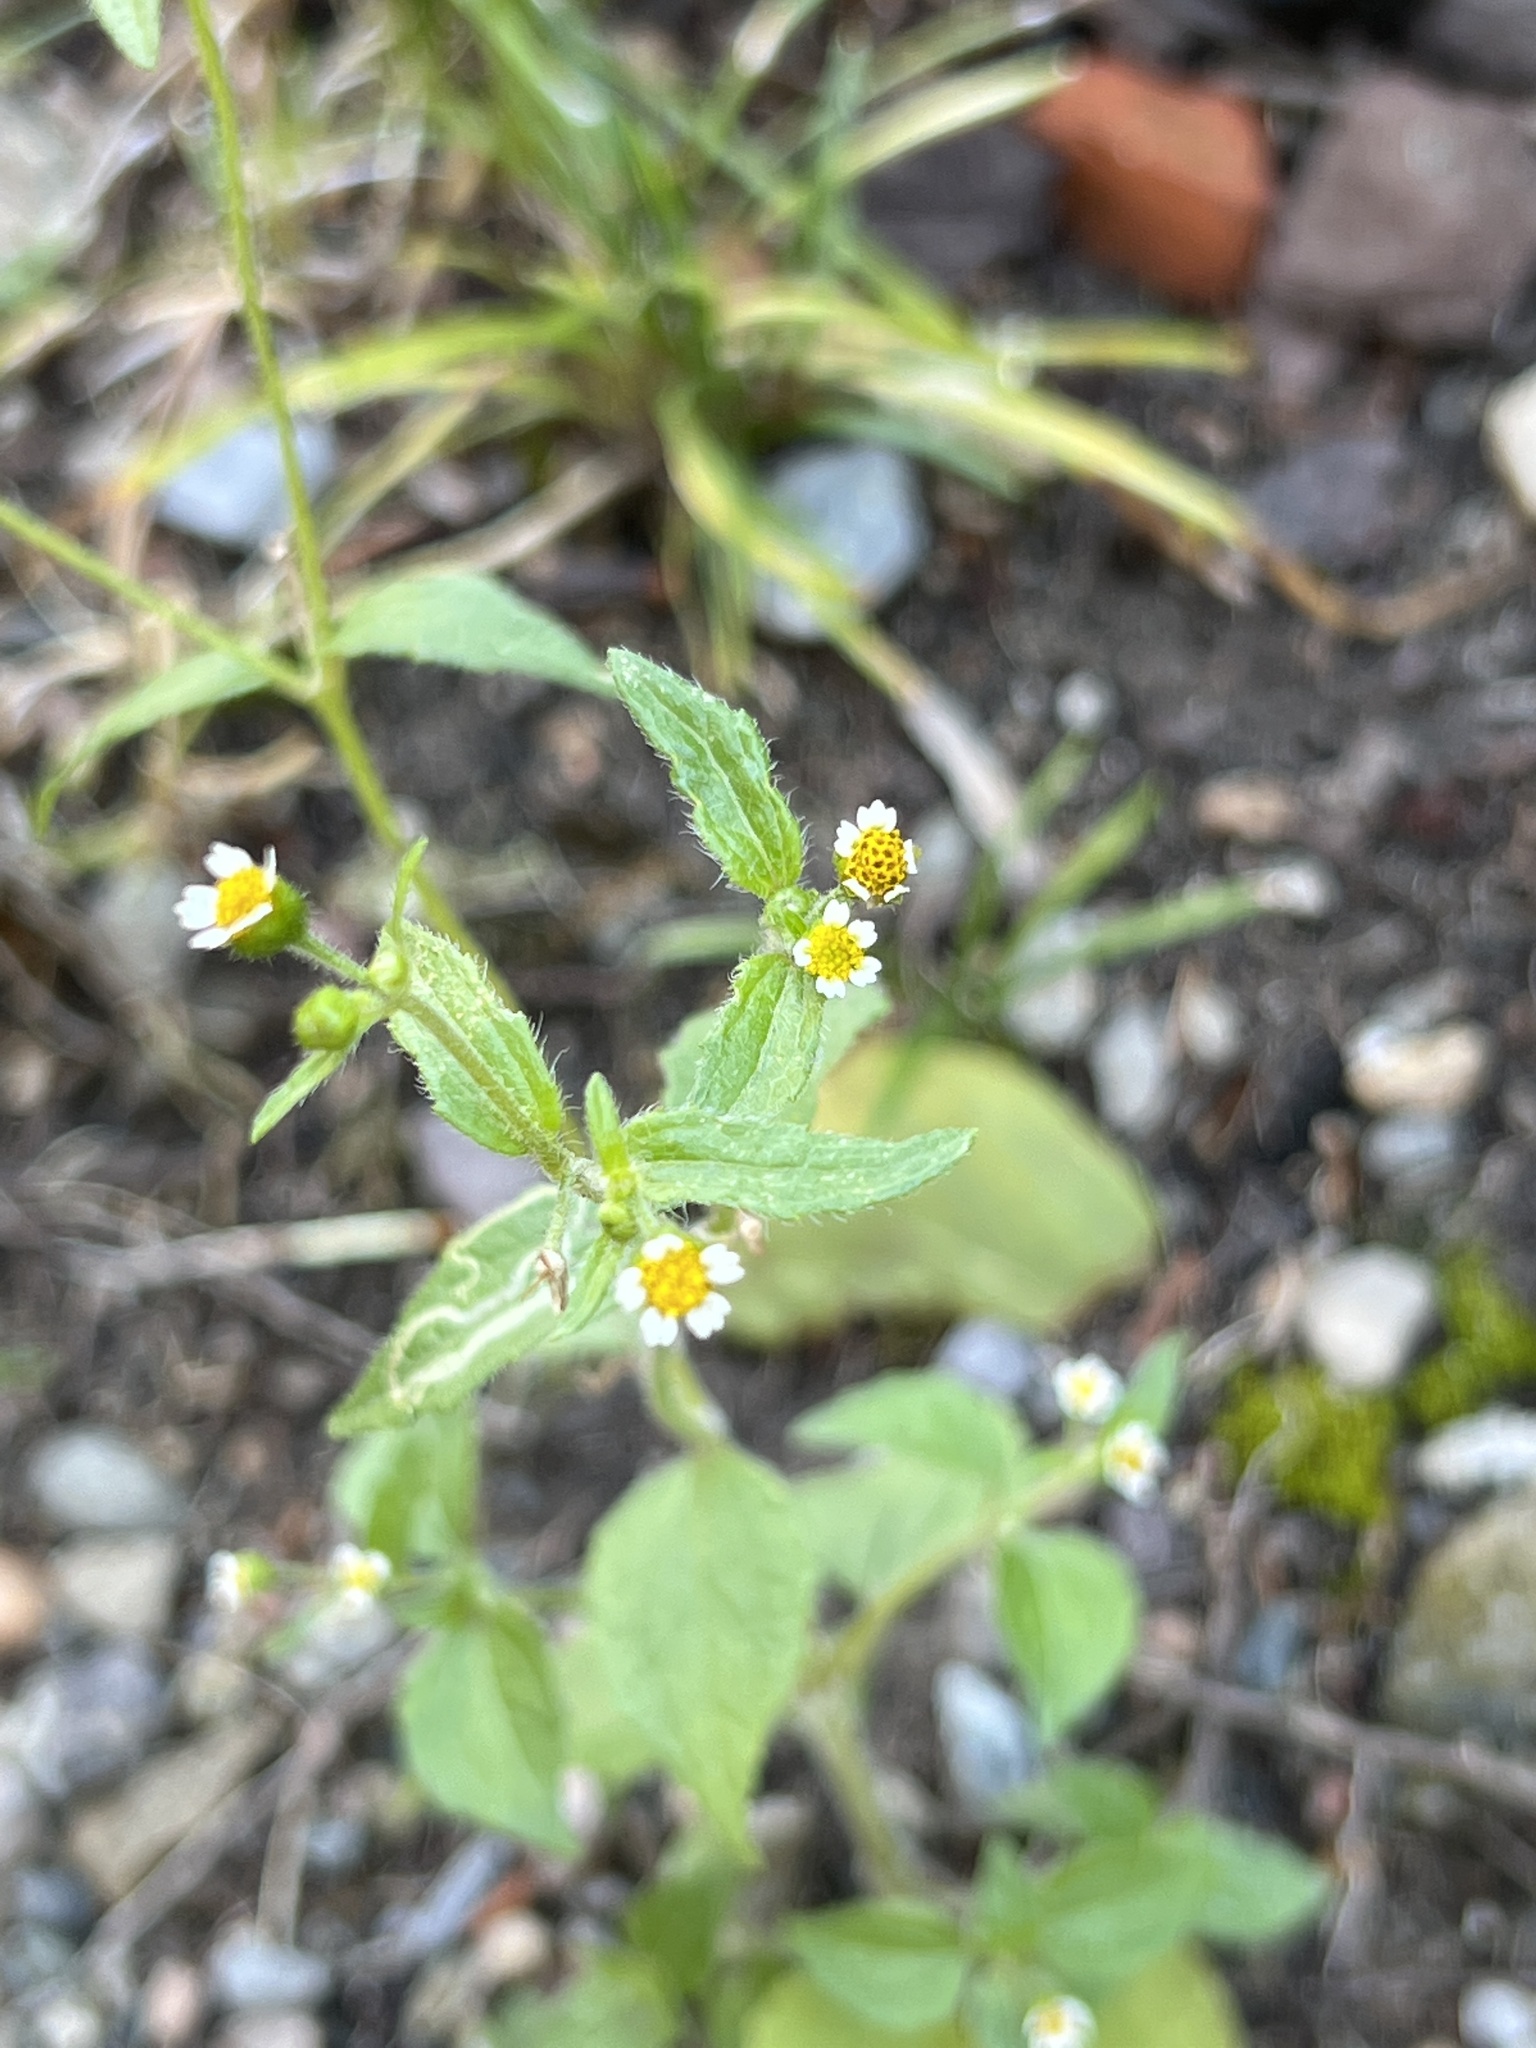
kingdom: Plantae
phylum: Tracheophyta
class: Magnoliopsida
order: Asterales
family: Asteraceae
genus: Galinsoga
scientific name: Galinsoga quadriradiata
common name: Shaggy soldier
